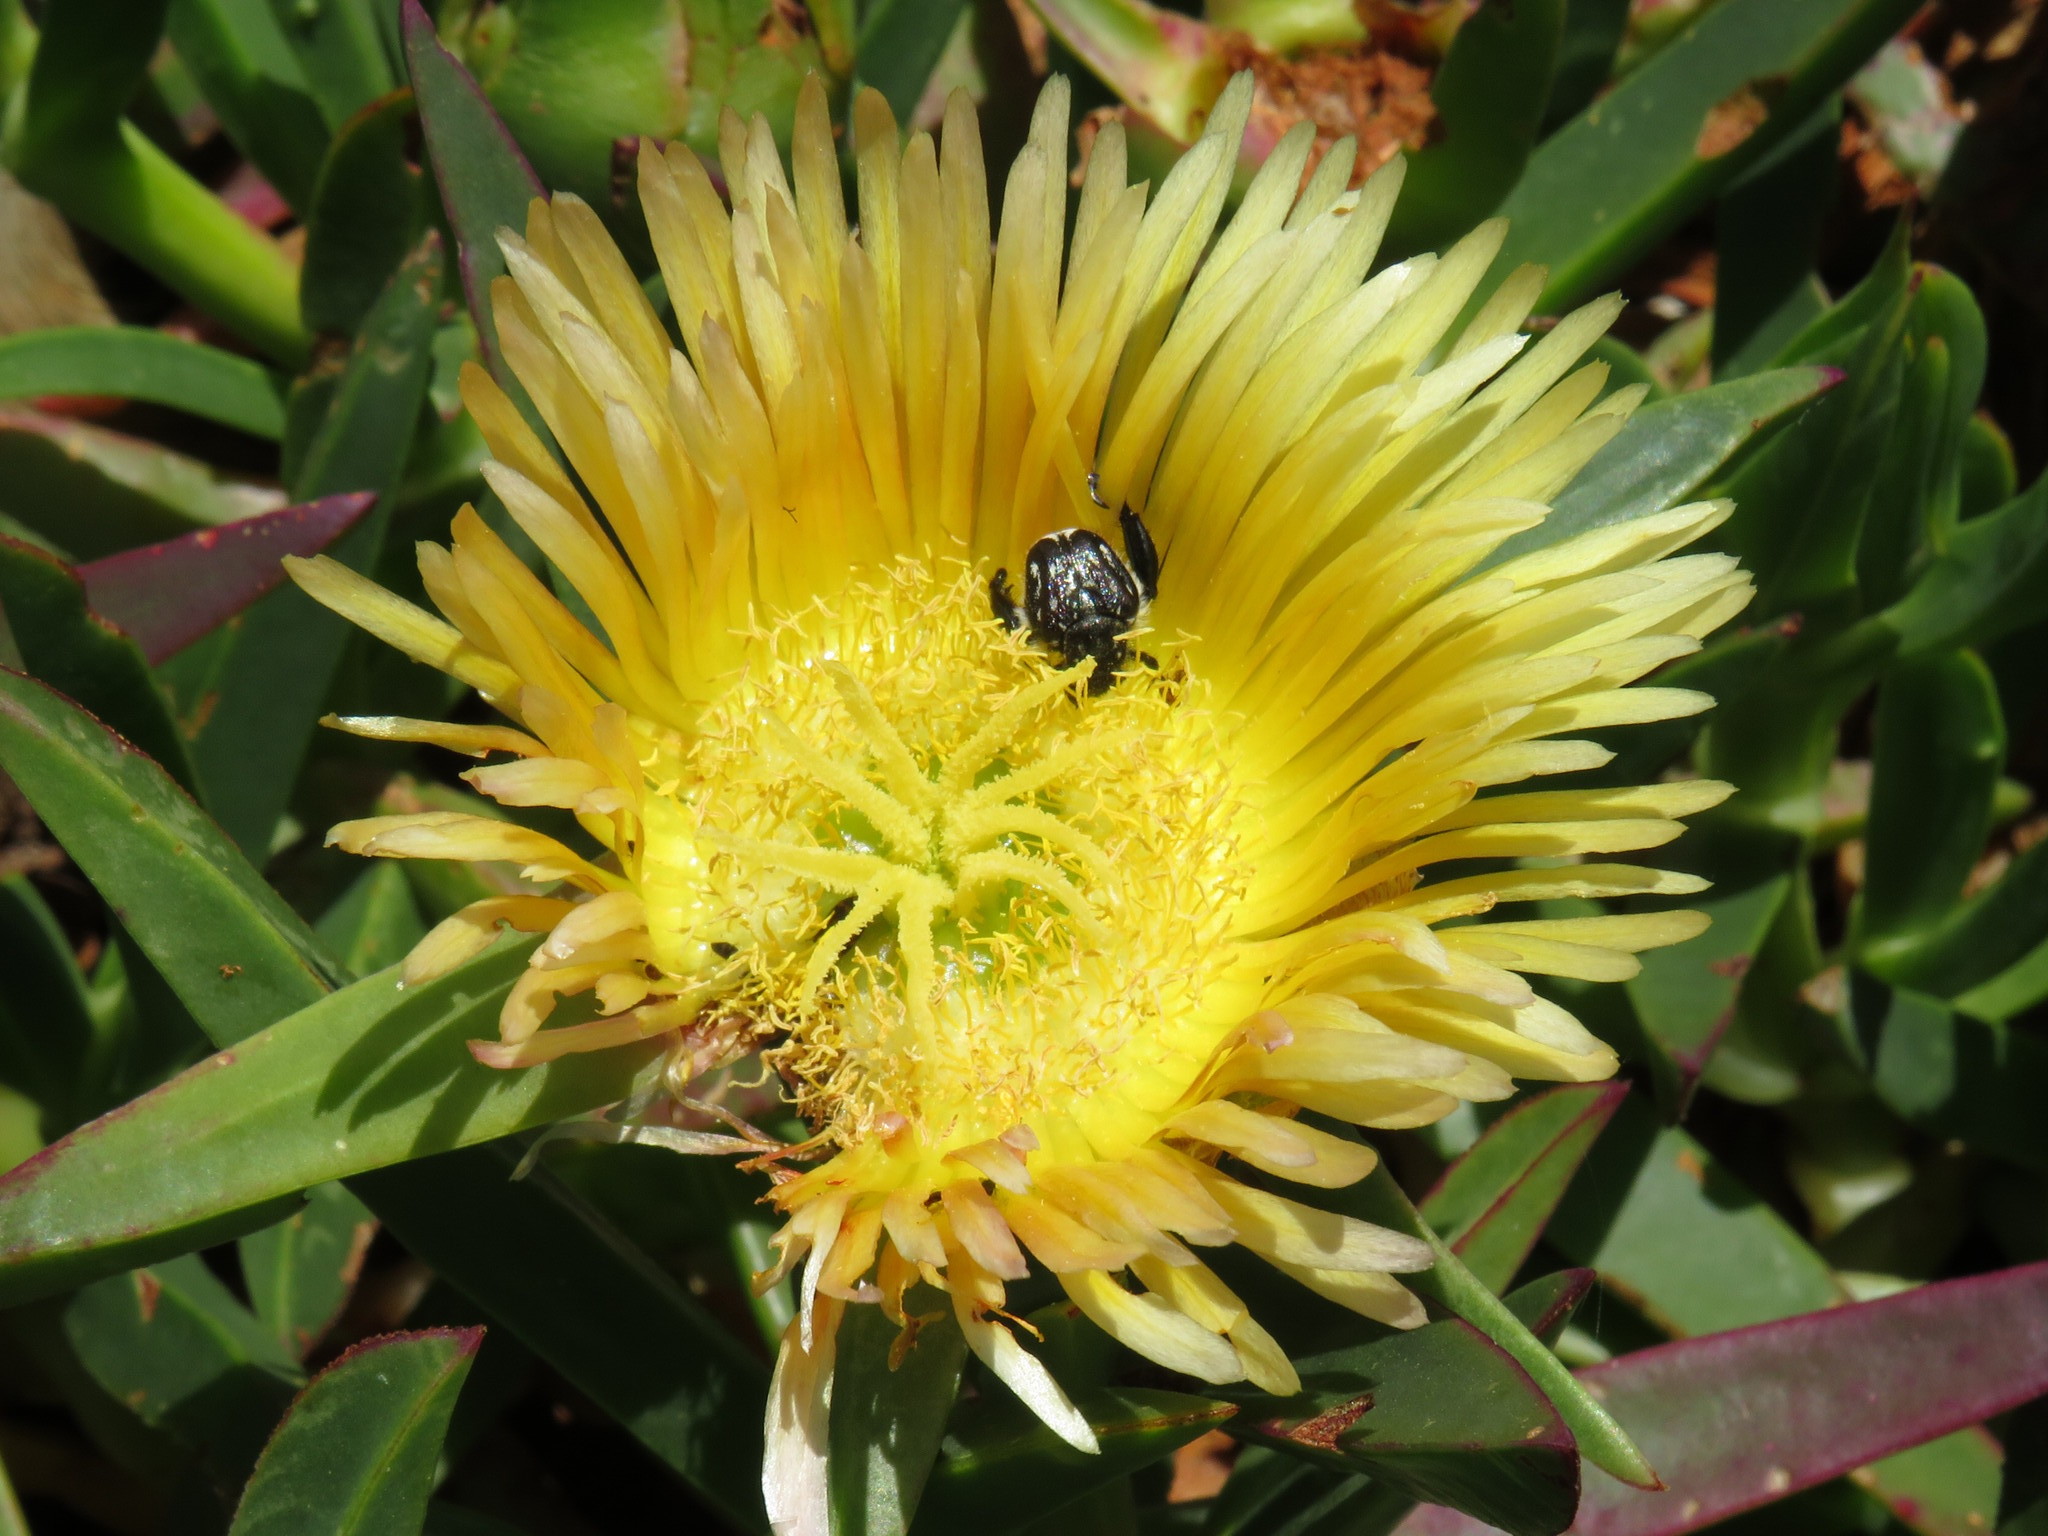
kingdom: Plantae
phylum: Tracheophyta
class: Magnoliopsida
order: Caryophyllales
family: Aizoaceae
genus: Carpobrotus
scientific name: Carpobrotus edulis
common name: Hottentot-fig
